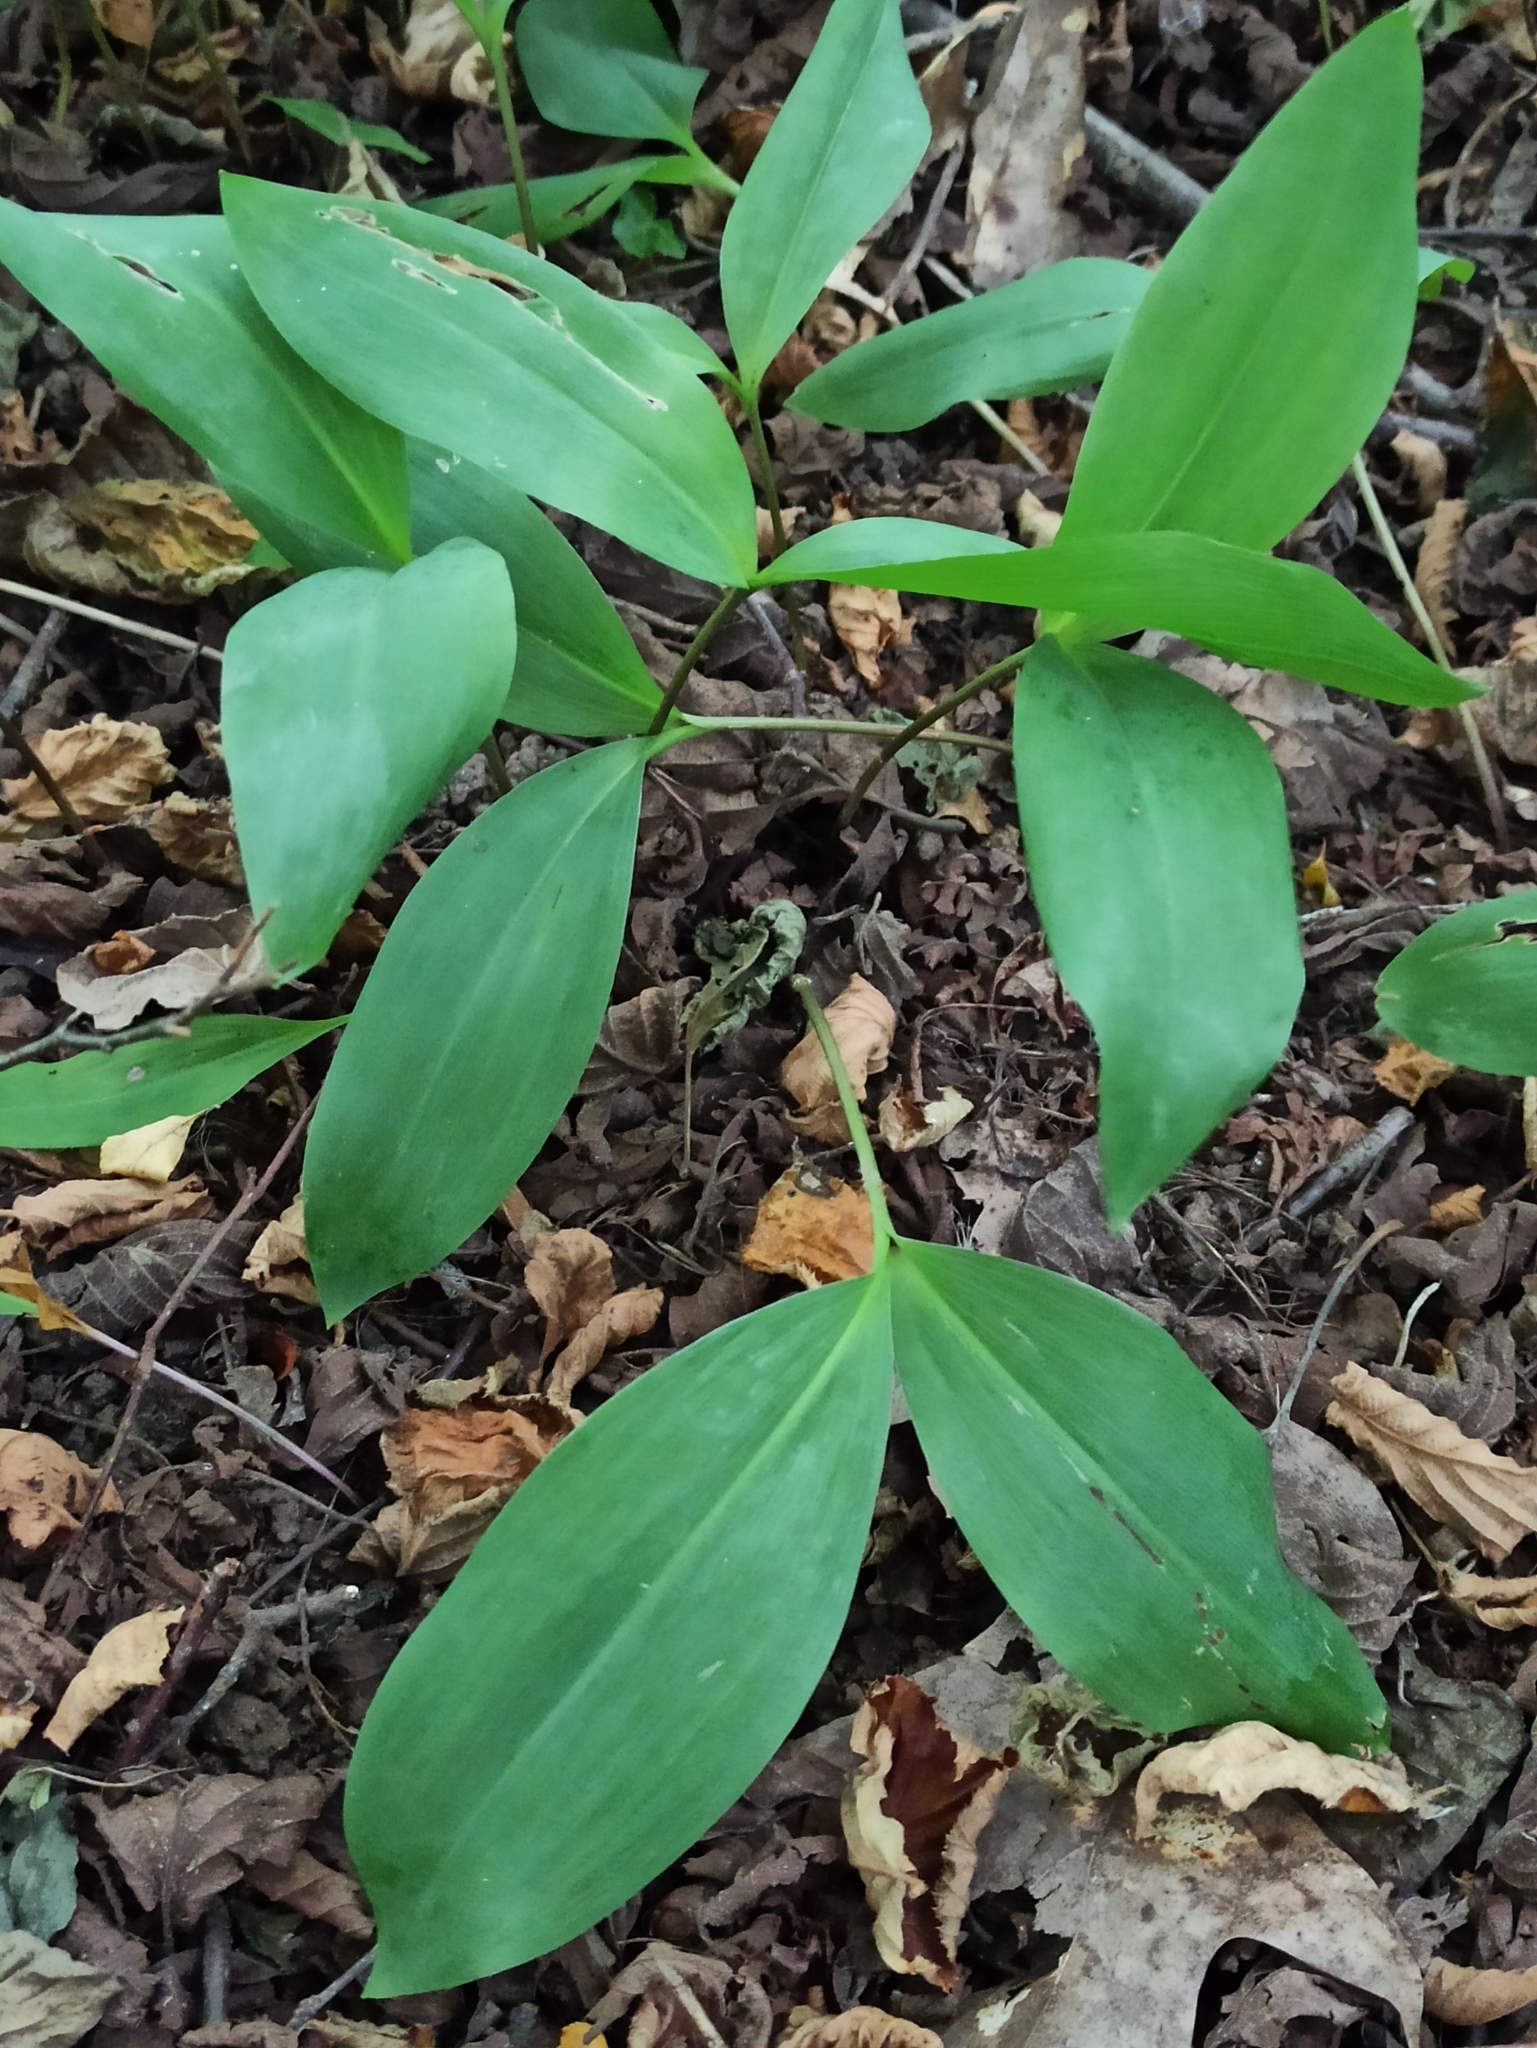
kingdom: Plantae
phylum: Tracheophyta
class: Liliopsida
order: Asparagales
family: Asparagaceae
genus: Convallaria
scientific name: Convallaria majalis
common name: Lily-of-the-valley
